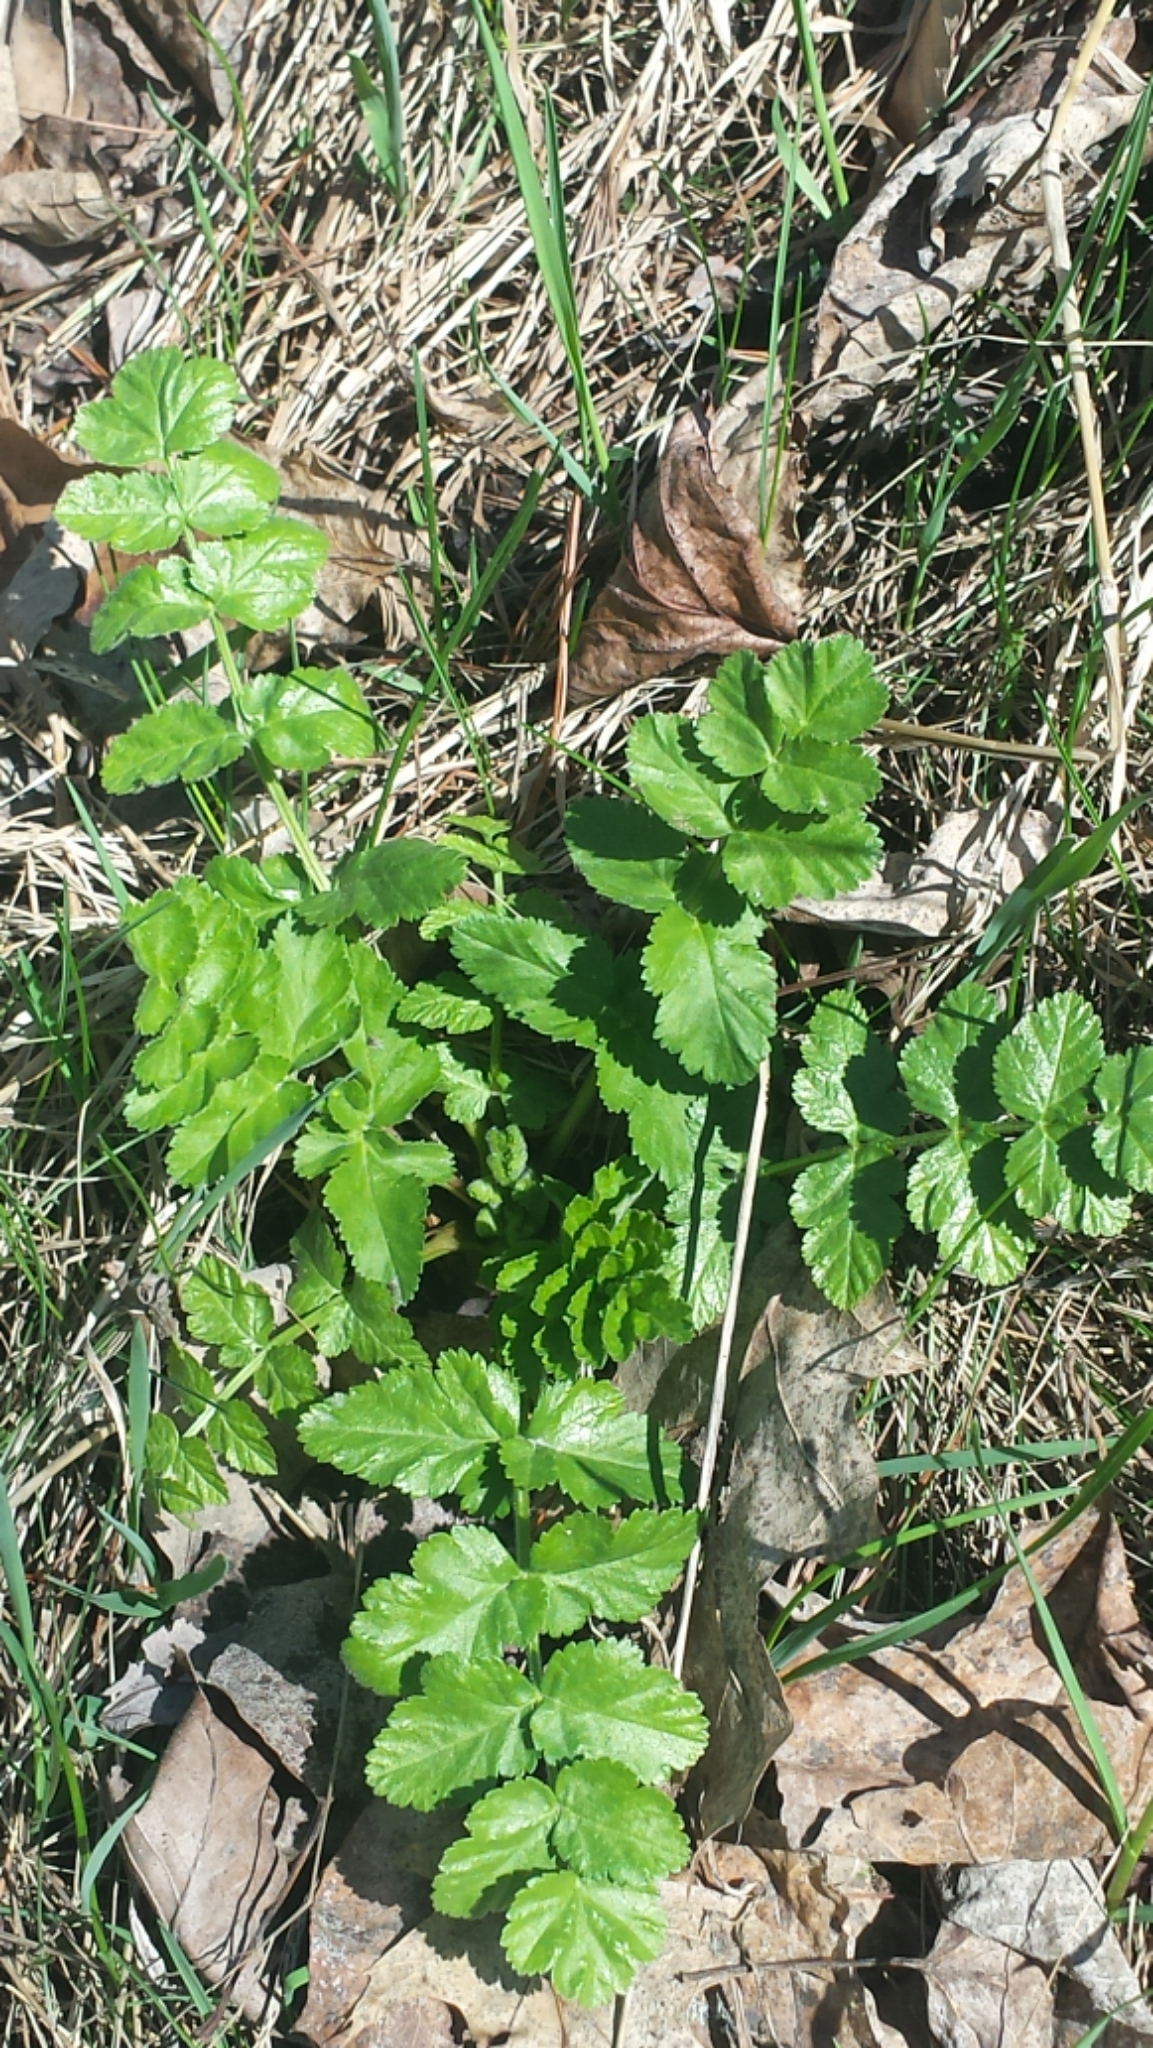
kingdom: Plantae
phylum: Tracheophyta
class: Magnoliopsida
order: Apiales
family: Apiaceae
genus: Pastinaca
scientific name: Pastinaca sativa
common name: Wild parsnip
